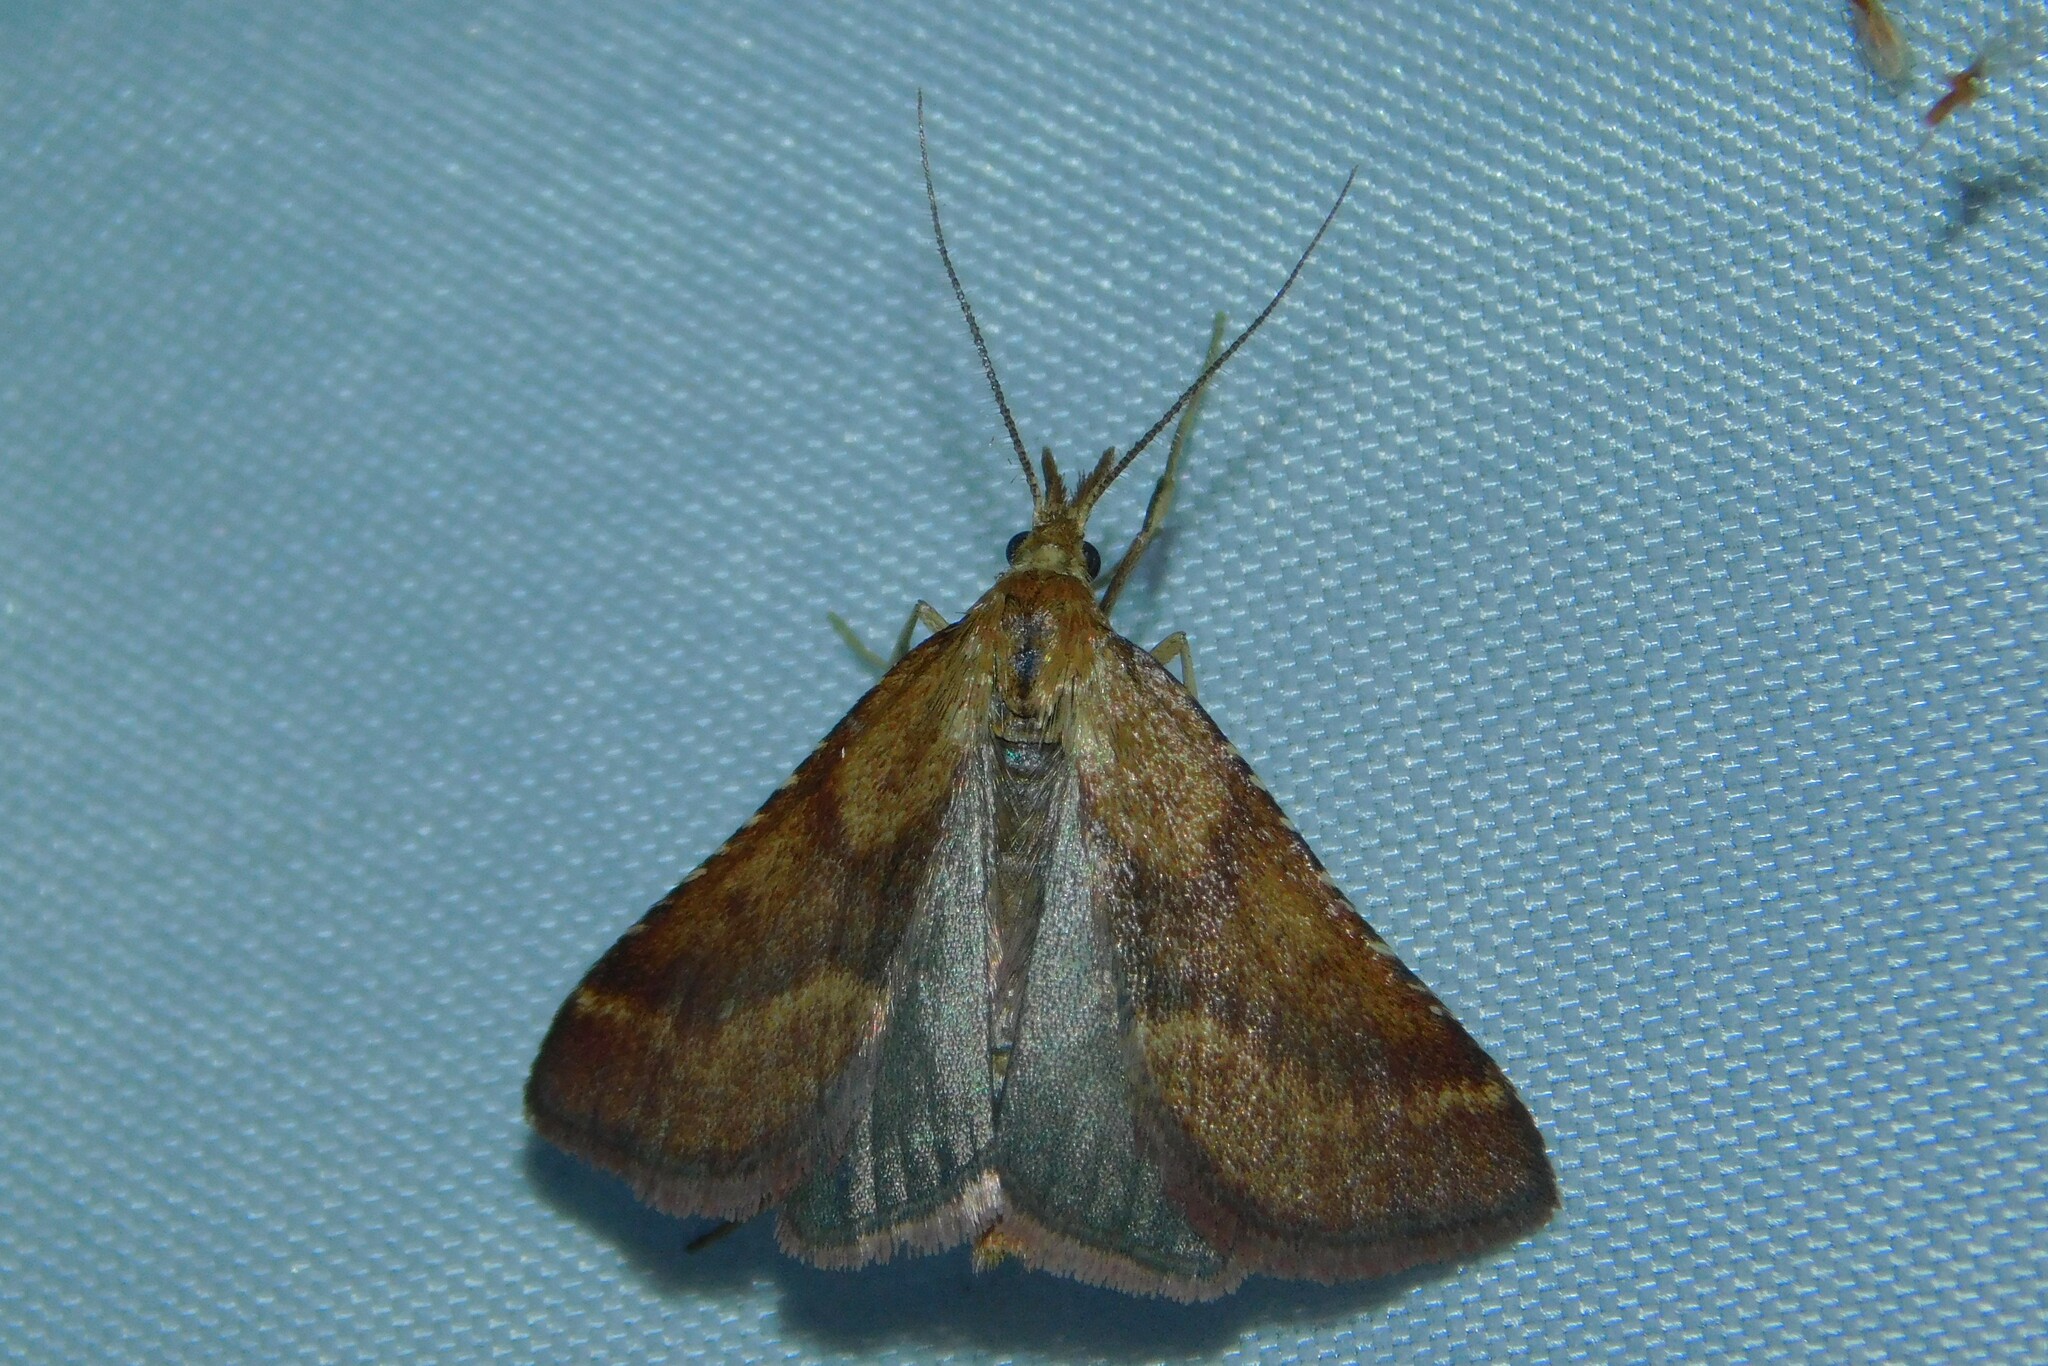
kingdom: Animalia
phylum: Arthropoda
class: Insecta
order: Lepidoptera
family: Pyralidae
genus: Synaphe
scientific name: Synaphe punctalis
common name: Long-legged tabby
